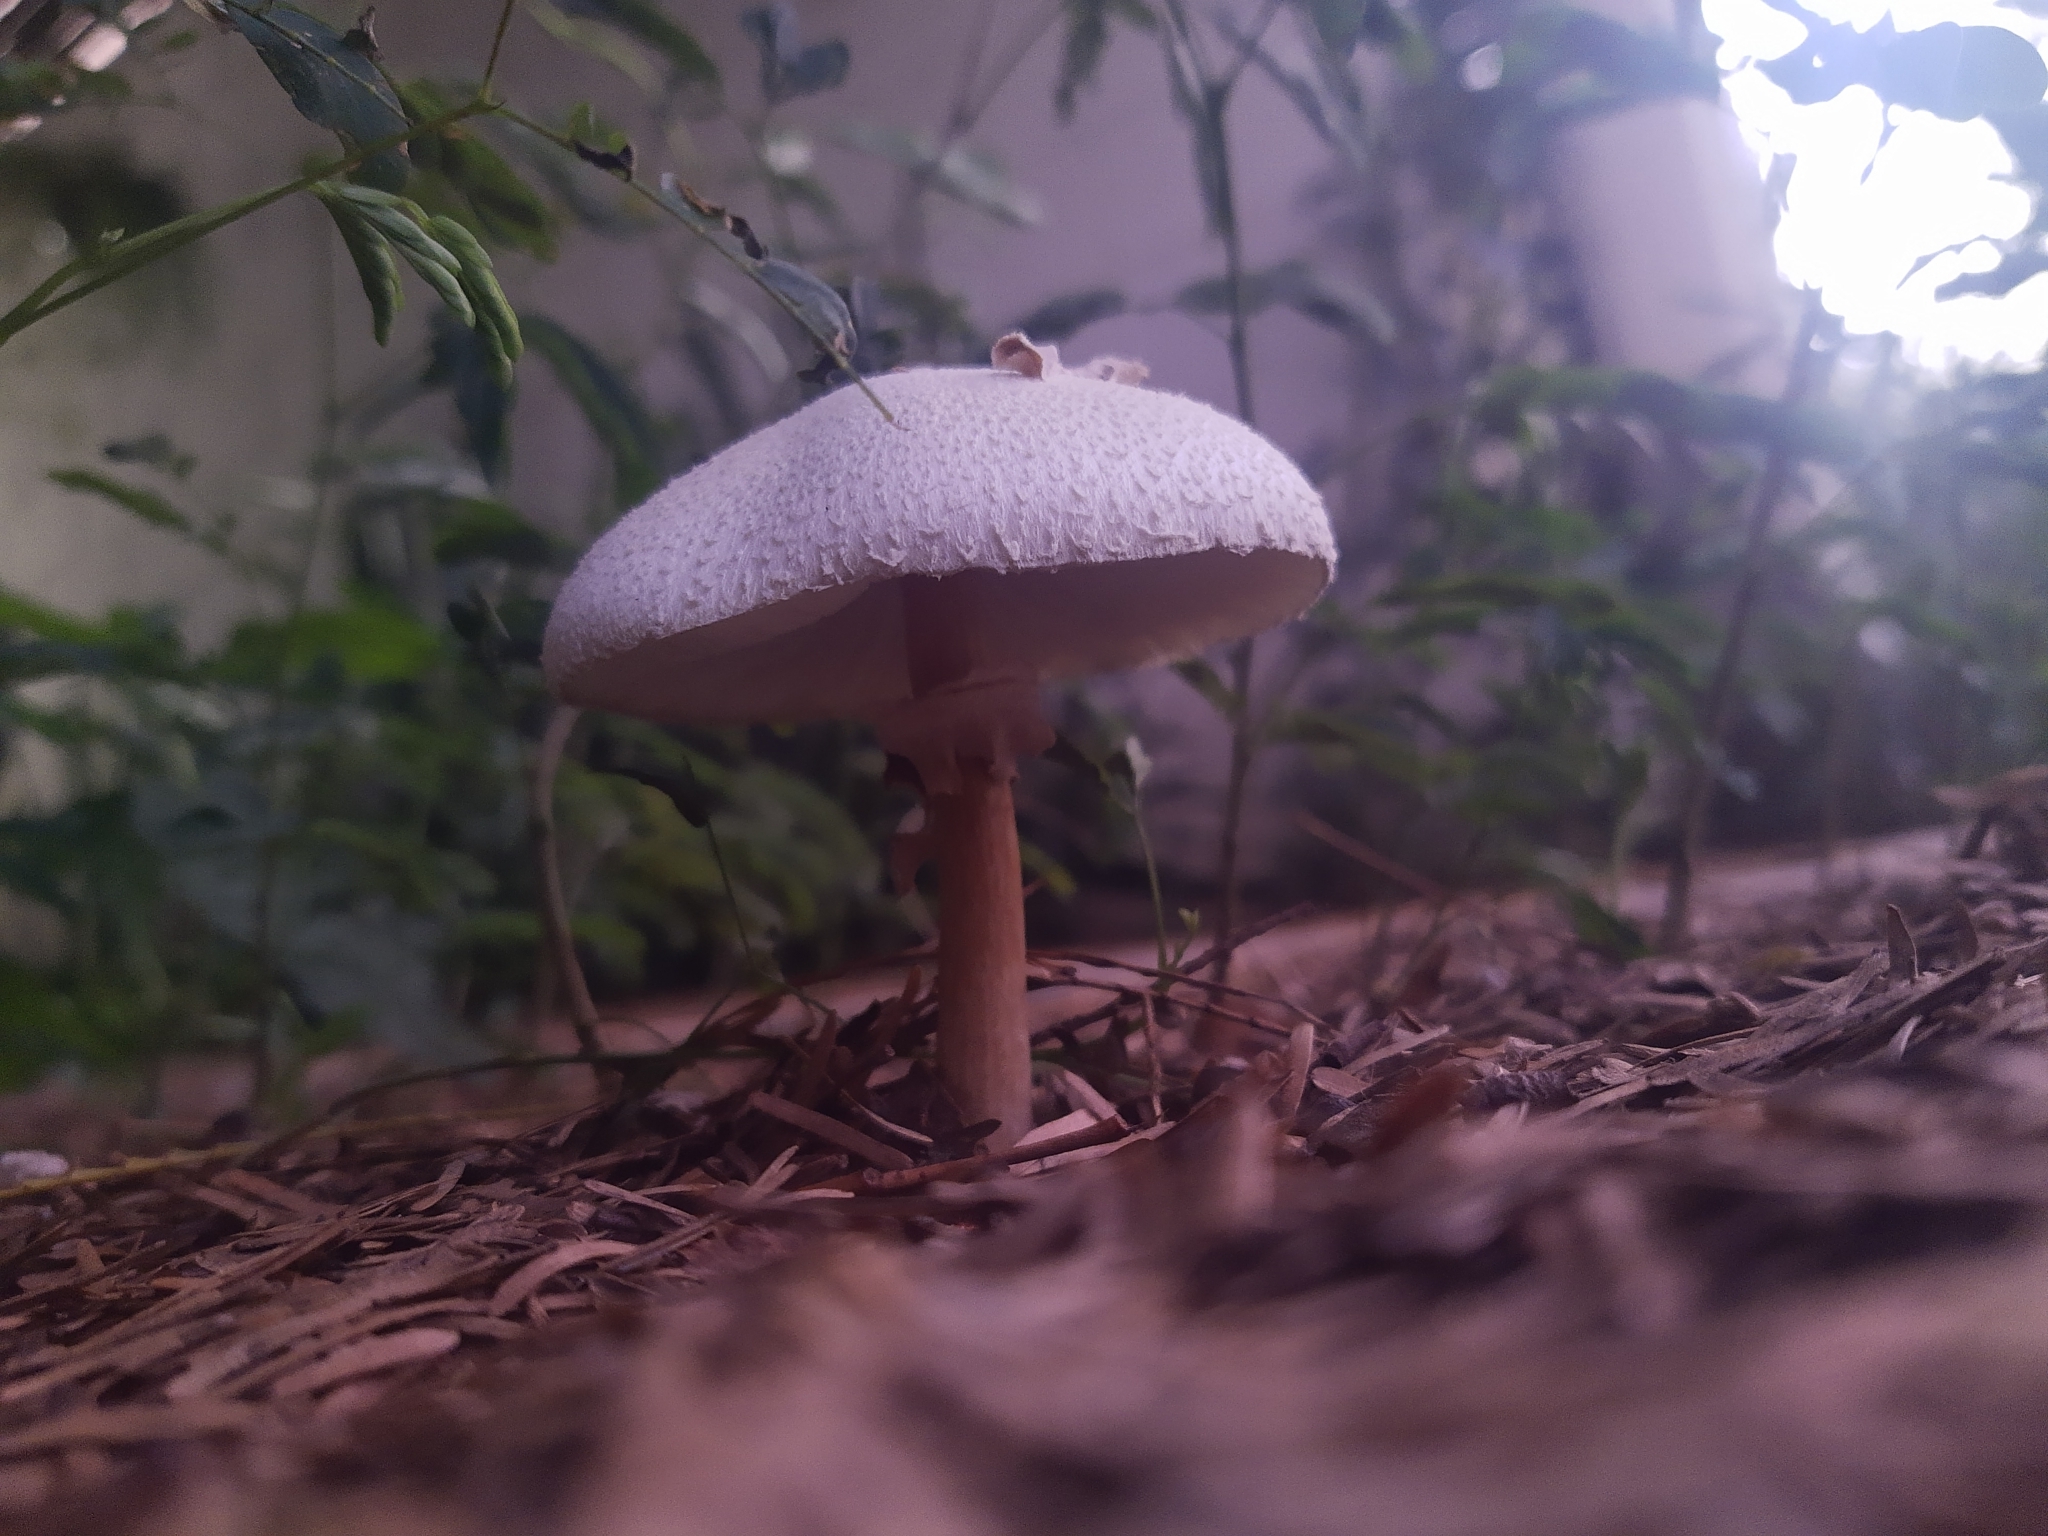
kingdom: Fungi
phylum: Basidiomycota
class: Agaricomycetes
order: Agaricales
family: Agaricaceae
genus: Chlorophyllum
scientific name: Chlorophyllum molybdites
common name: False parasol
